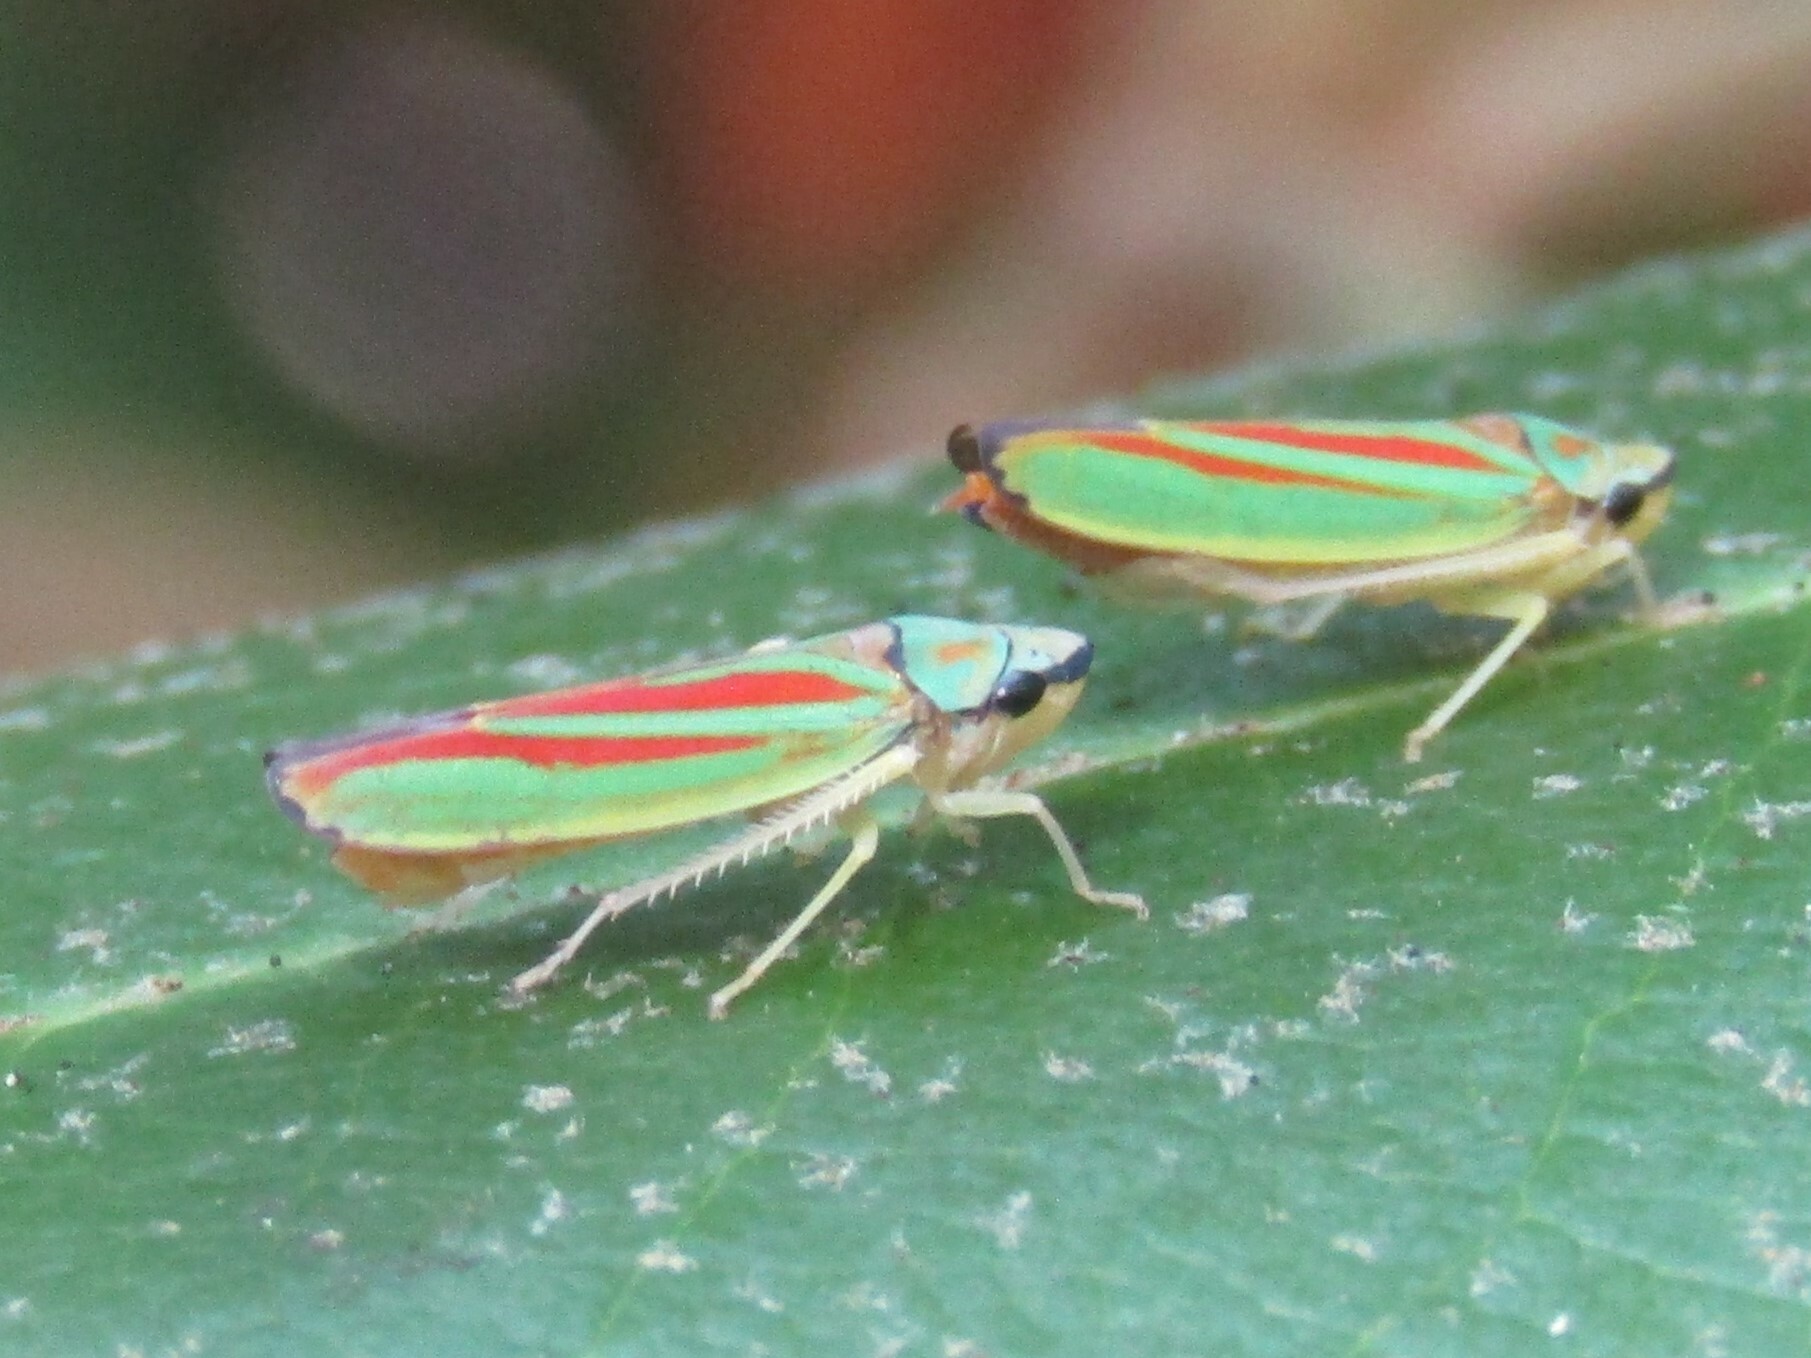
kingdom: Animalia
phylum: Arthropoda
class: Insecta
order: Hemiptera
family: Cicadellidae
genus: Graphocephala
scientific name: Graphocephala fennahi
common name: Rhododendron leafhopper
